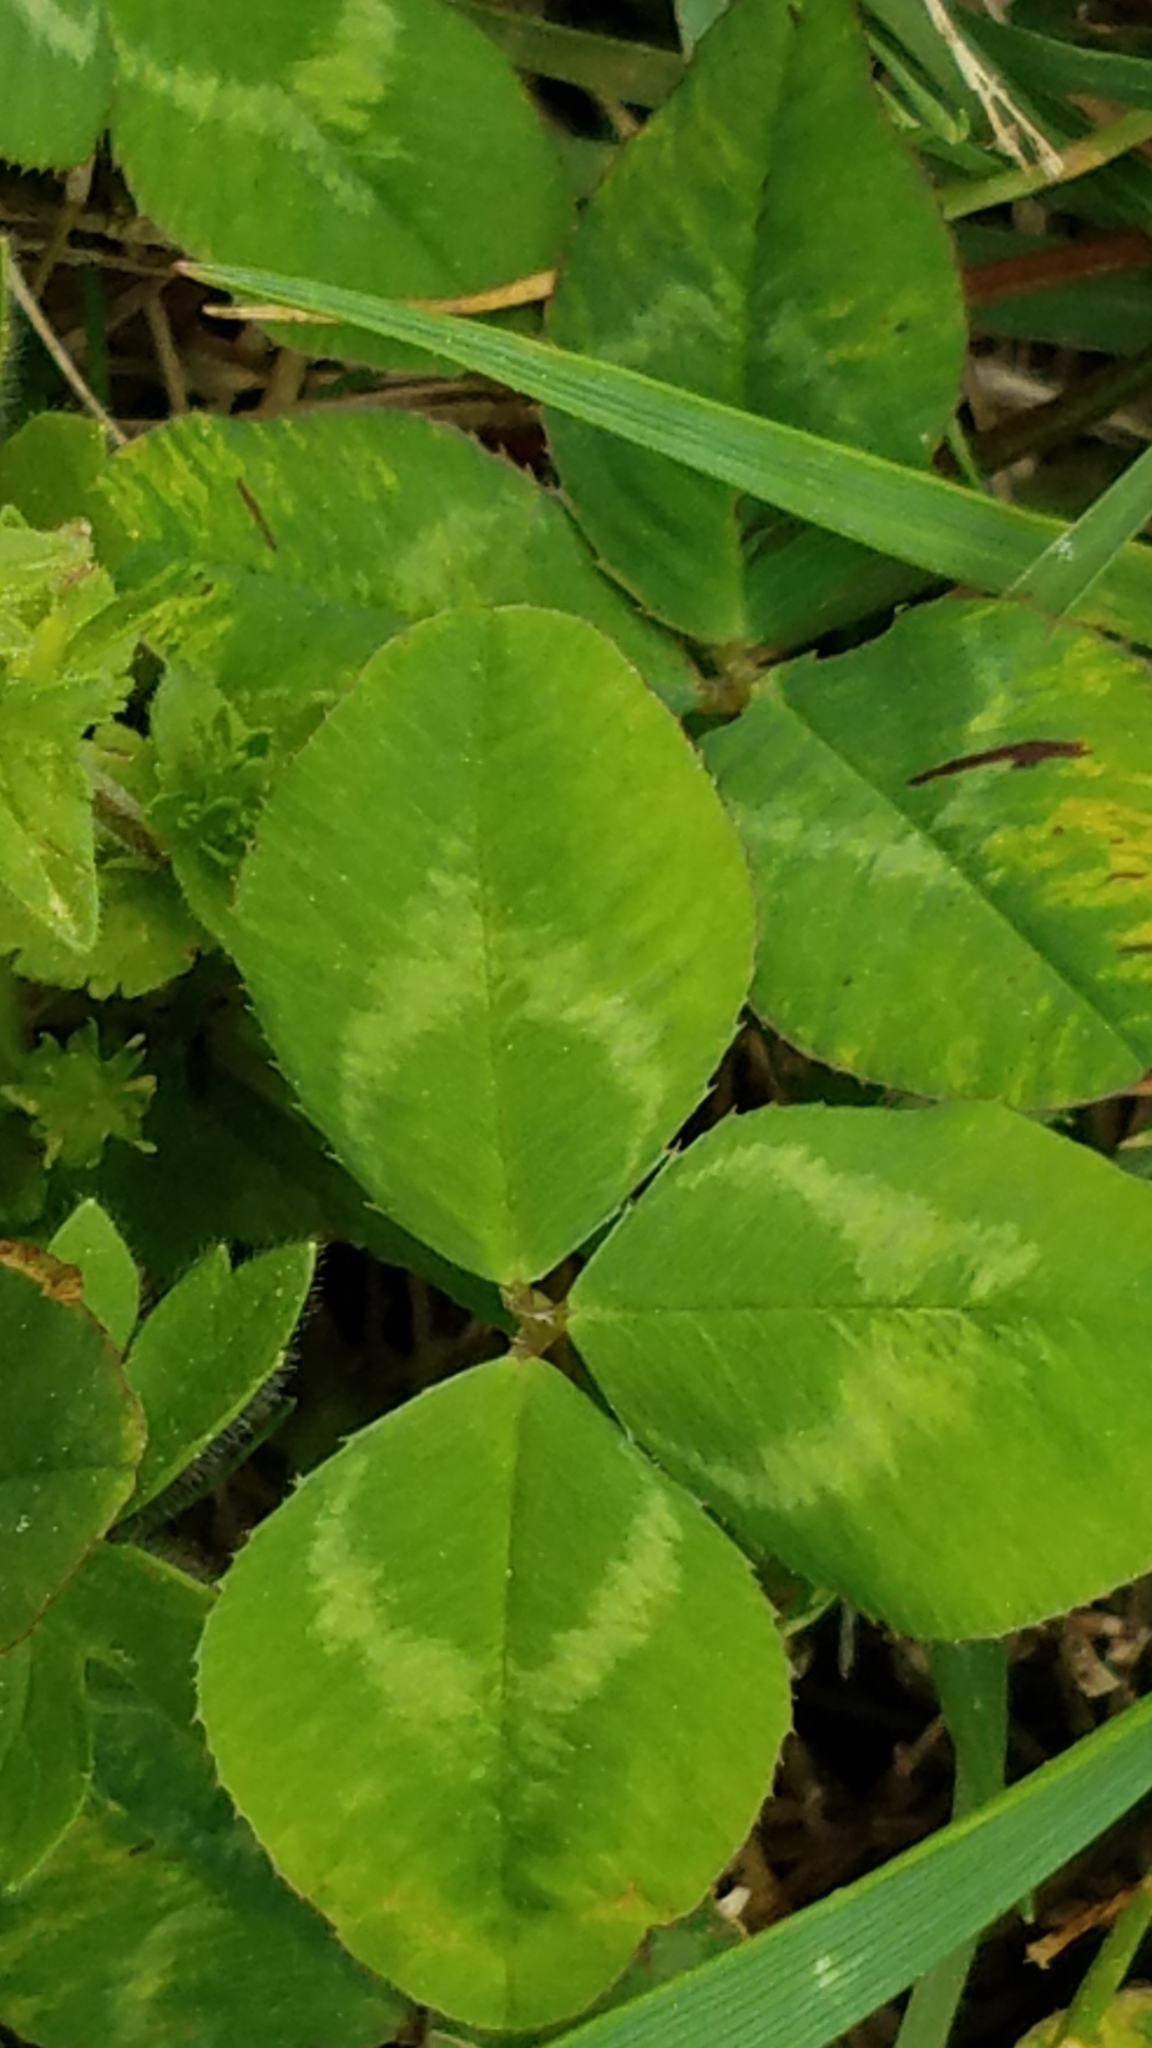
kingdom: Plantae
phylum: Tracheophyta
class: Magnoliopsida
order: Fabales
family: Fabaceae
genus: Trifolium
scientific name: Trifolium repens
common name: White clover
